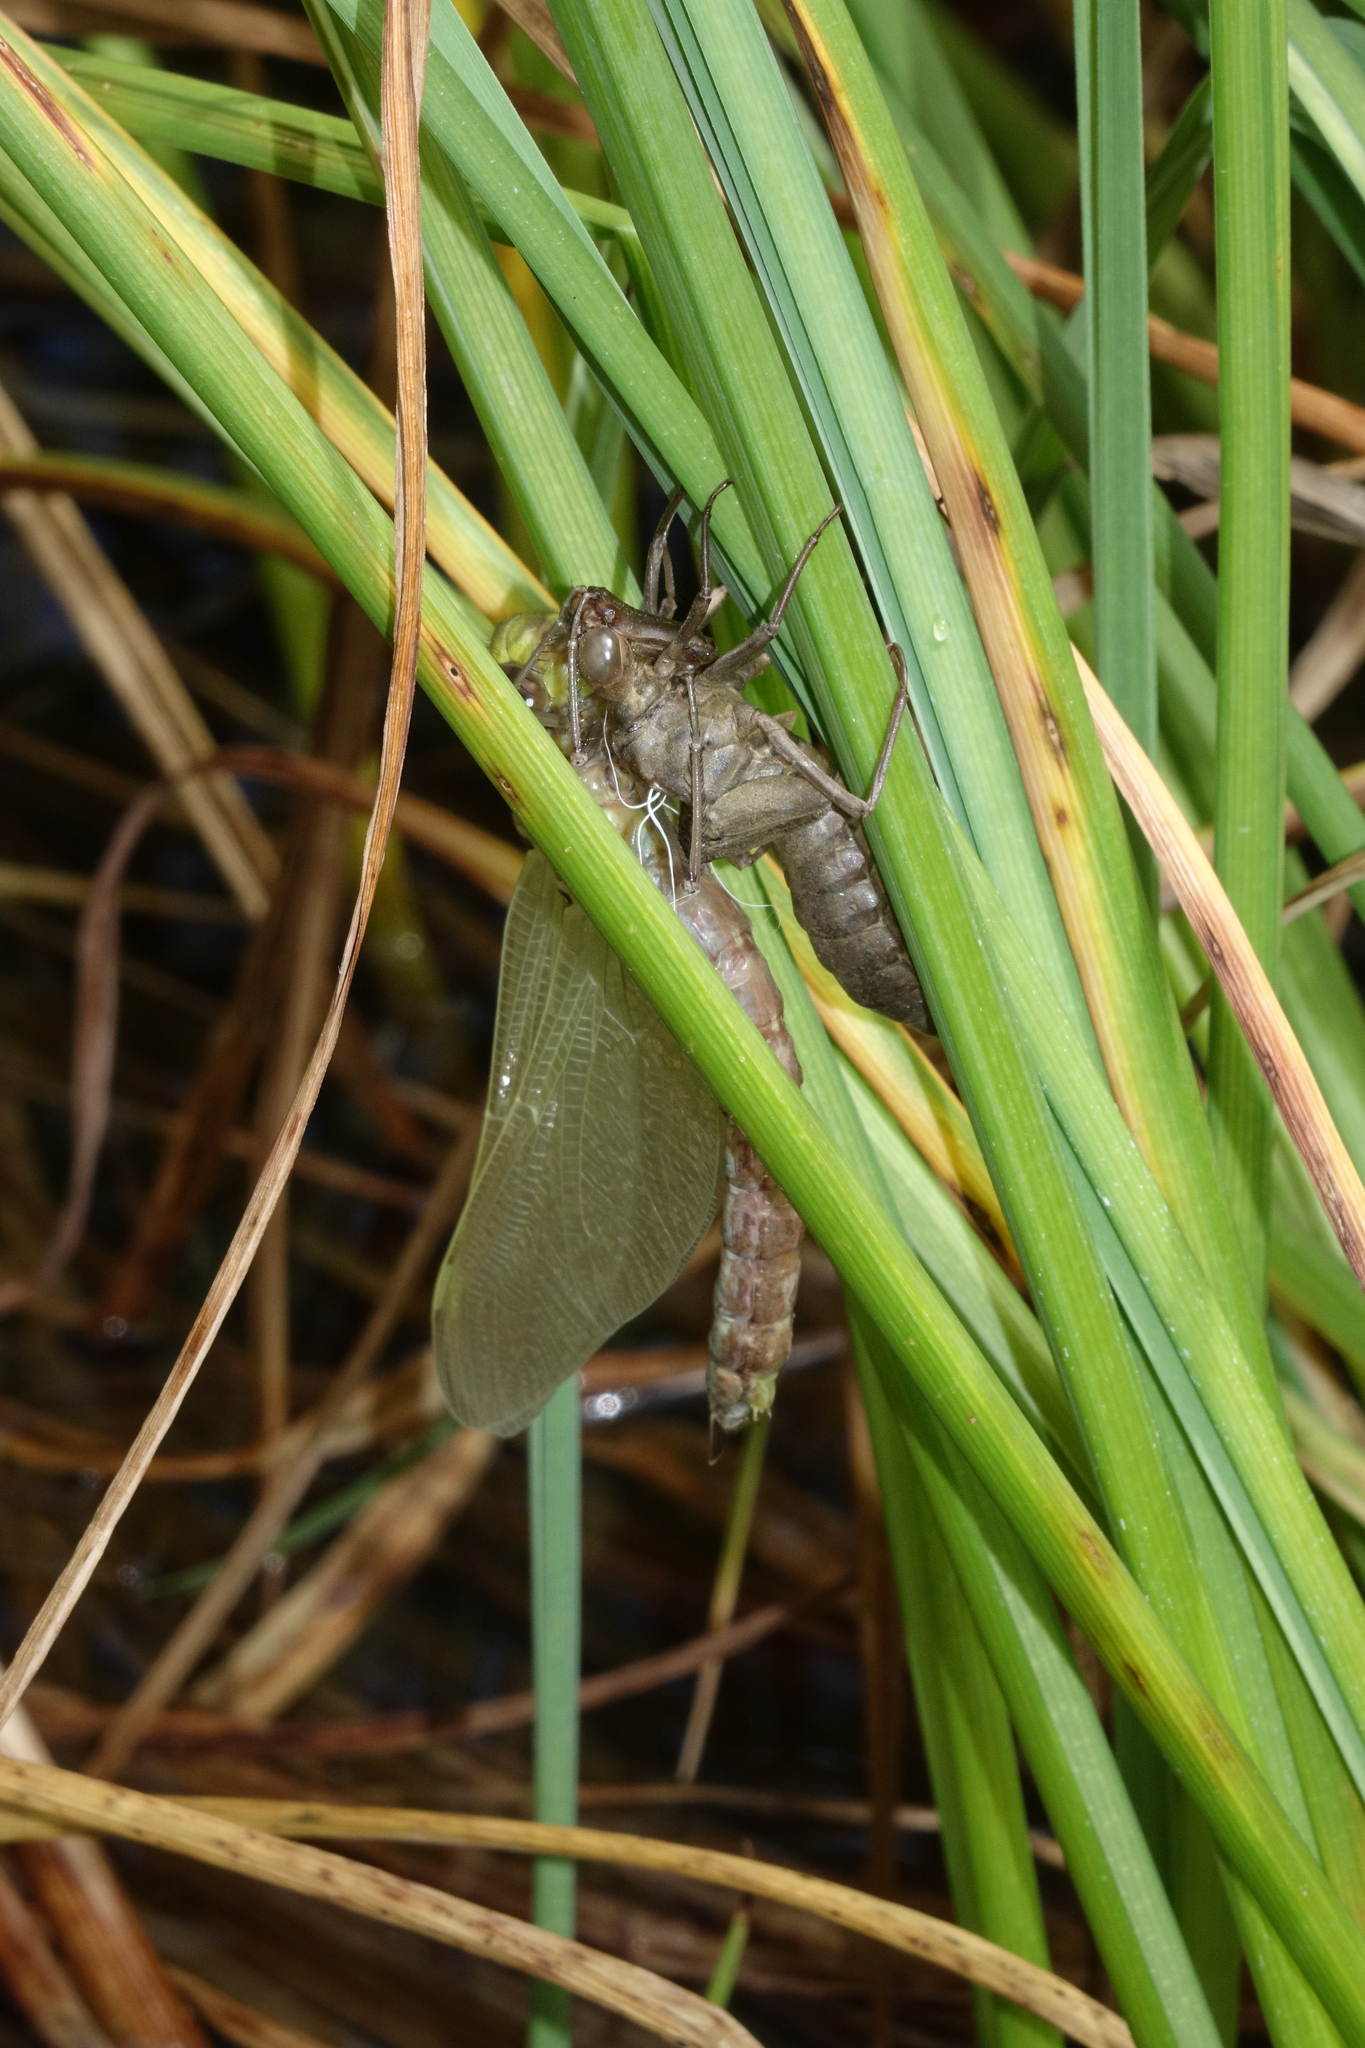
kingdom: Animalia
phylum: Arthropoda
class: Insecta
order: Odonata
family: Aeshnidae
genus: Aeshna
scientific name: Aeshna juncea
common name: Moorland hawker
